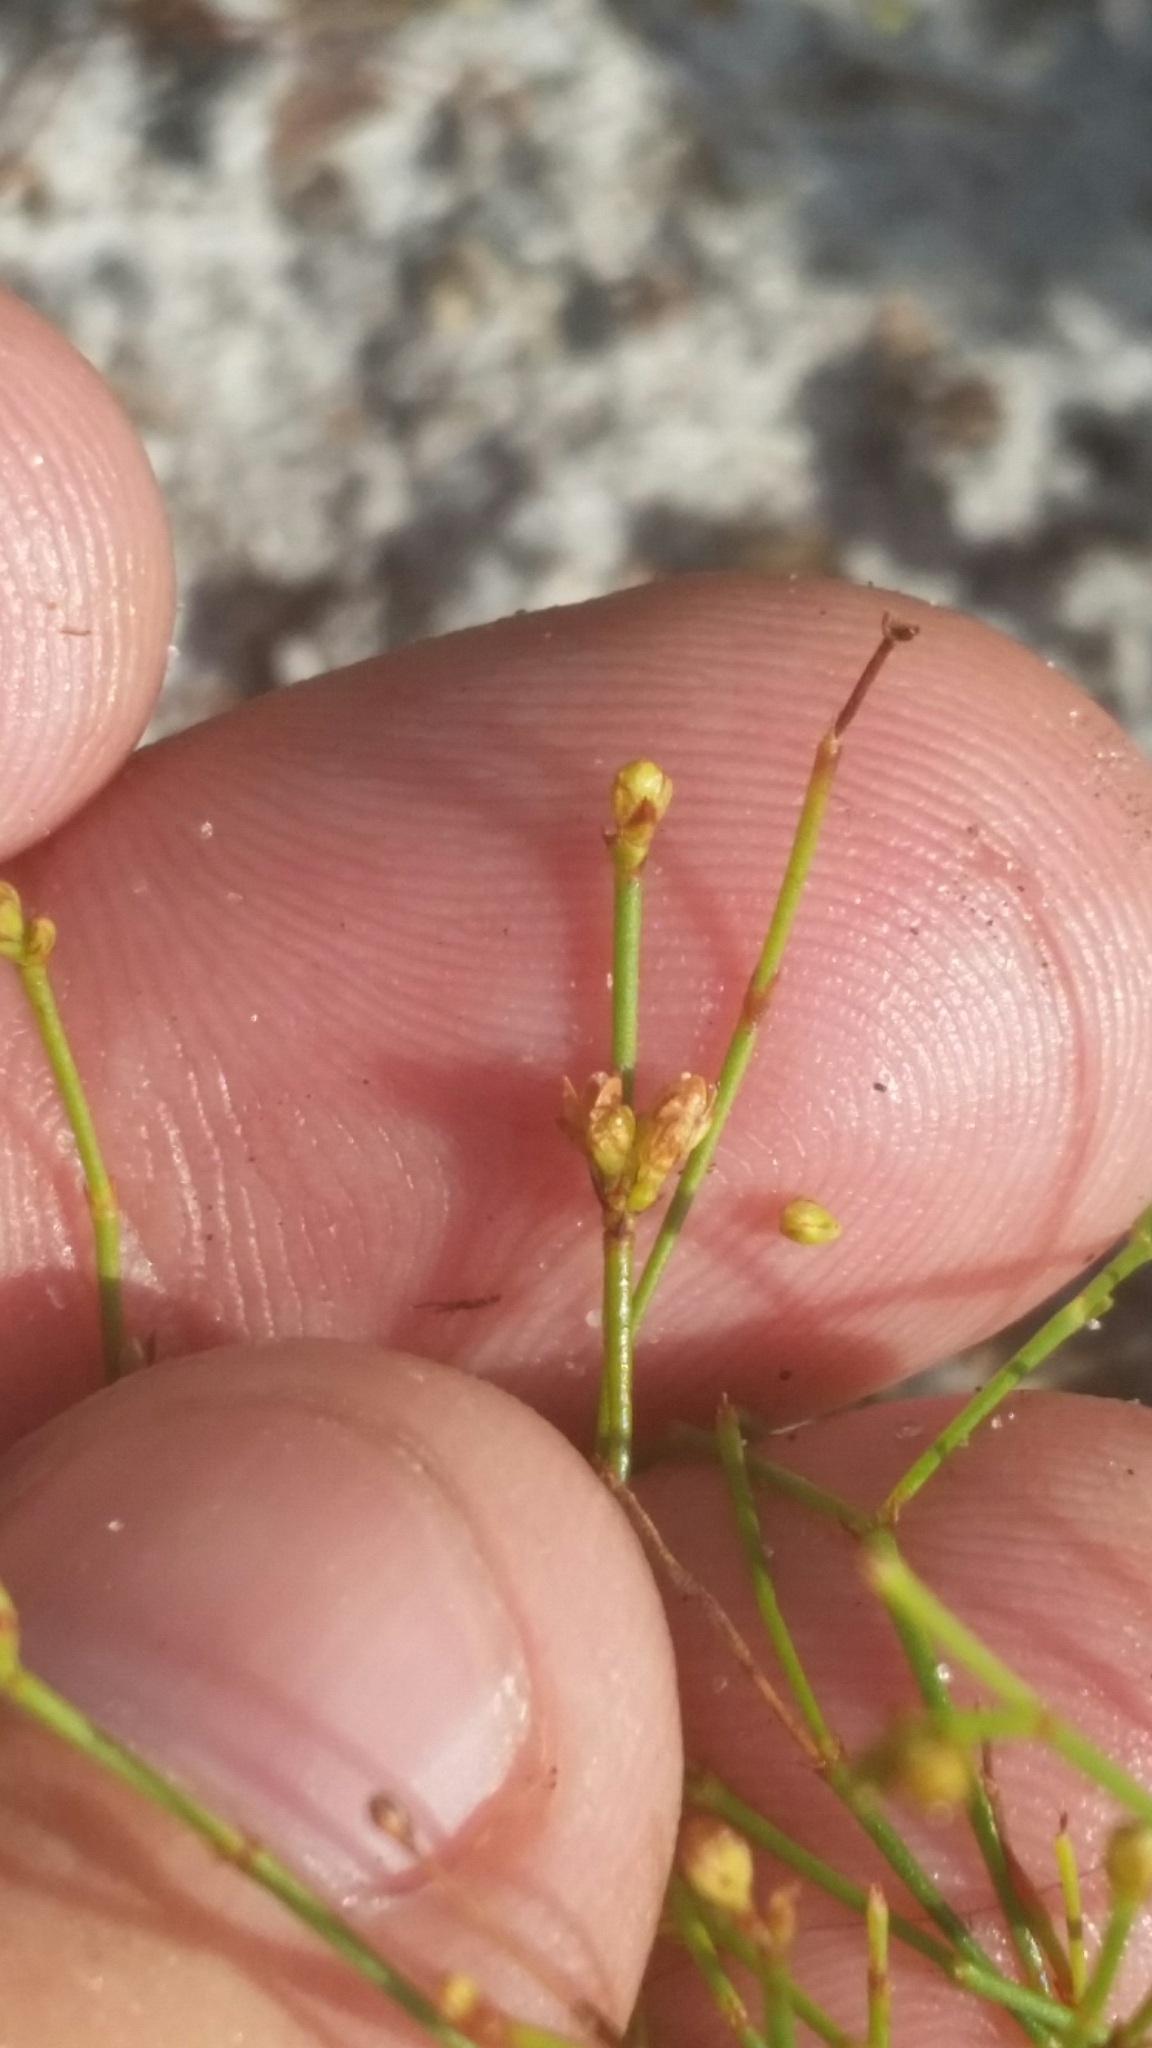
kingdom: Plantae
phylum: Tracheophyta
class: Magnoliopsida
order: Caryophyllales
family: Caryophyllaceae
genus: Stipulicida
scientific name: Stipulicida setacea
